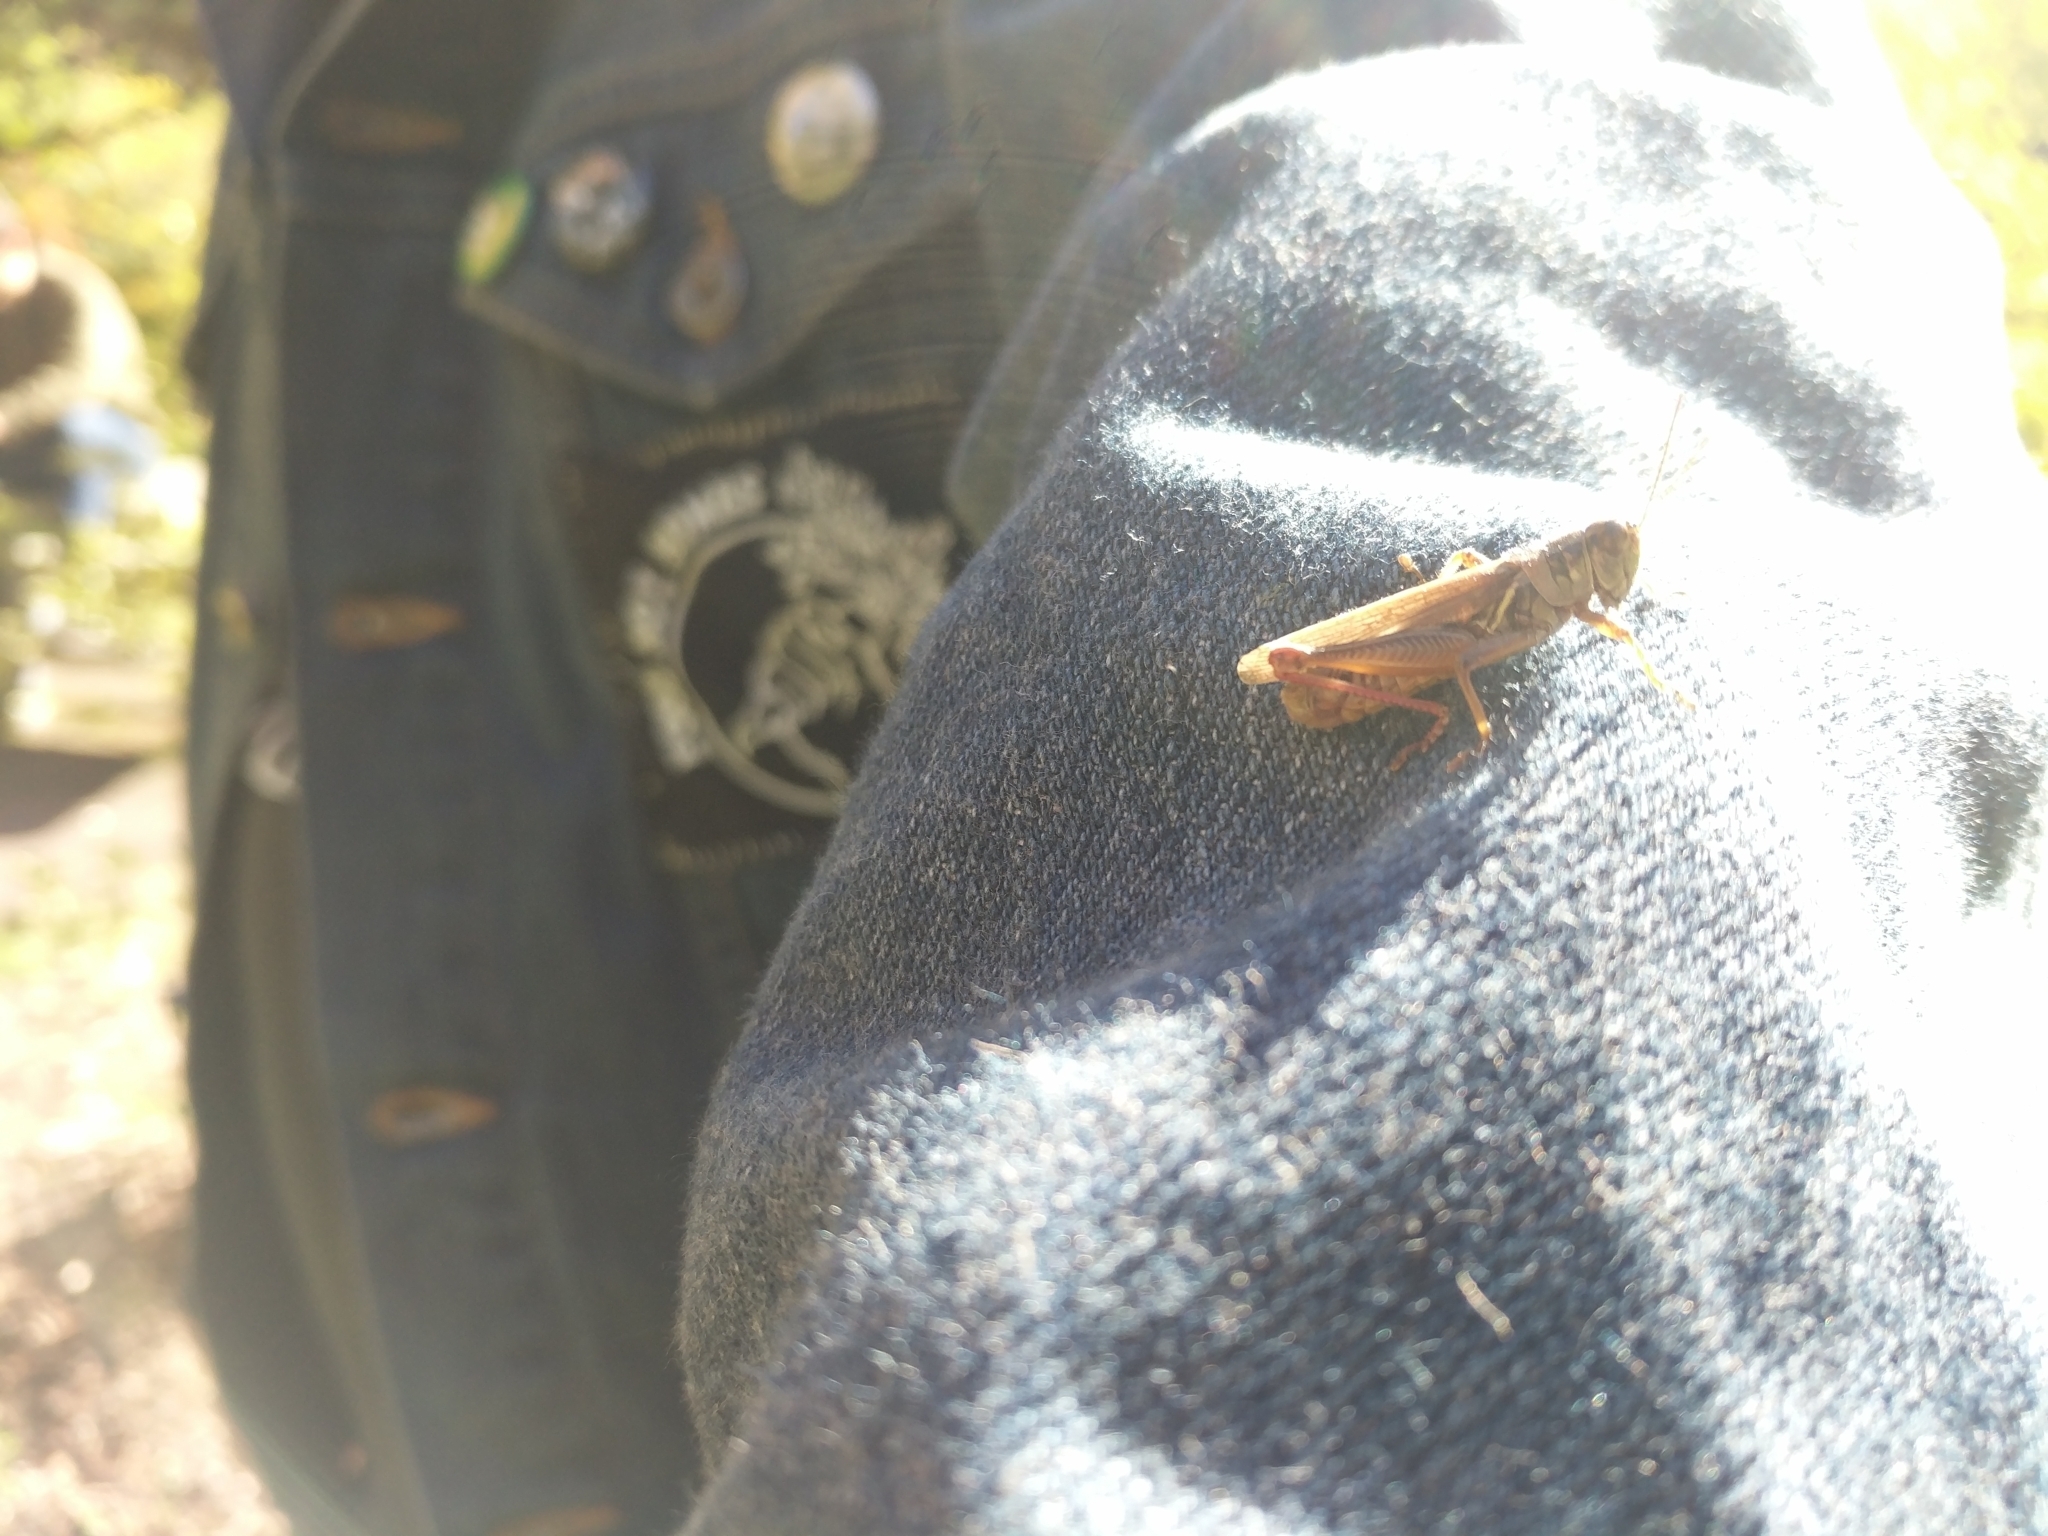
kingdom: Animalia
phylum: Arthropoda
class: Insecta
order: Orthoptera
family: Acrididae
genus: Melanoplus
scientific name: Melanoplus femurrubrum
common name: Red-legged grasshopper
